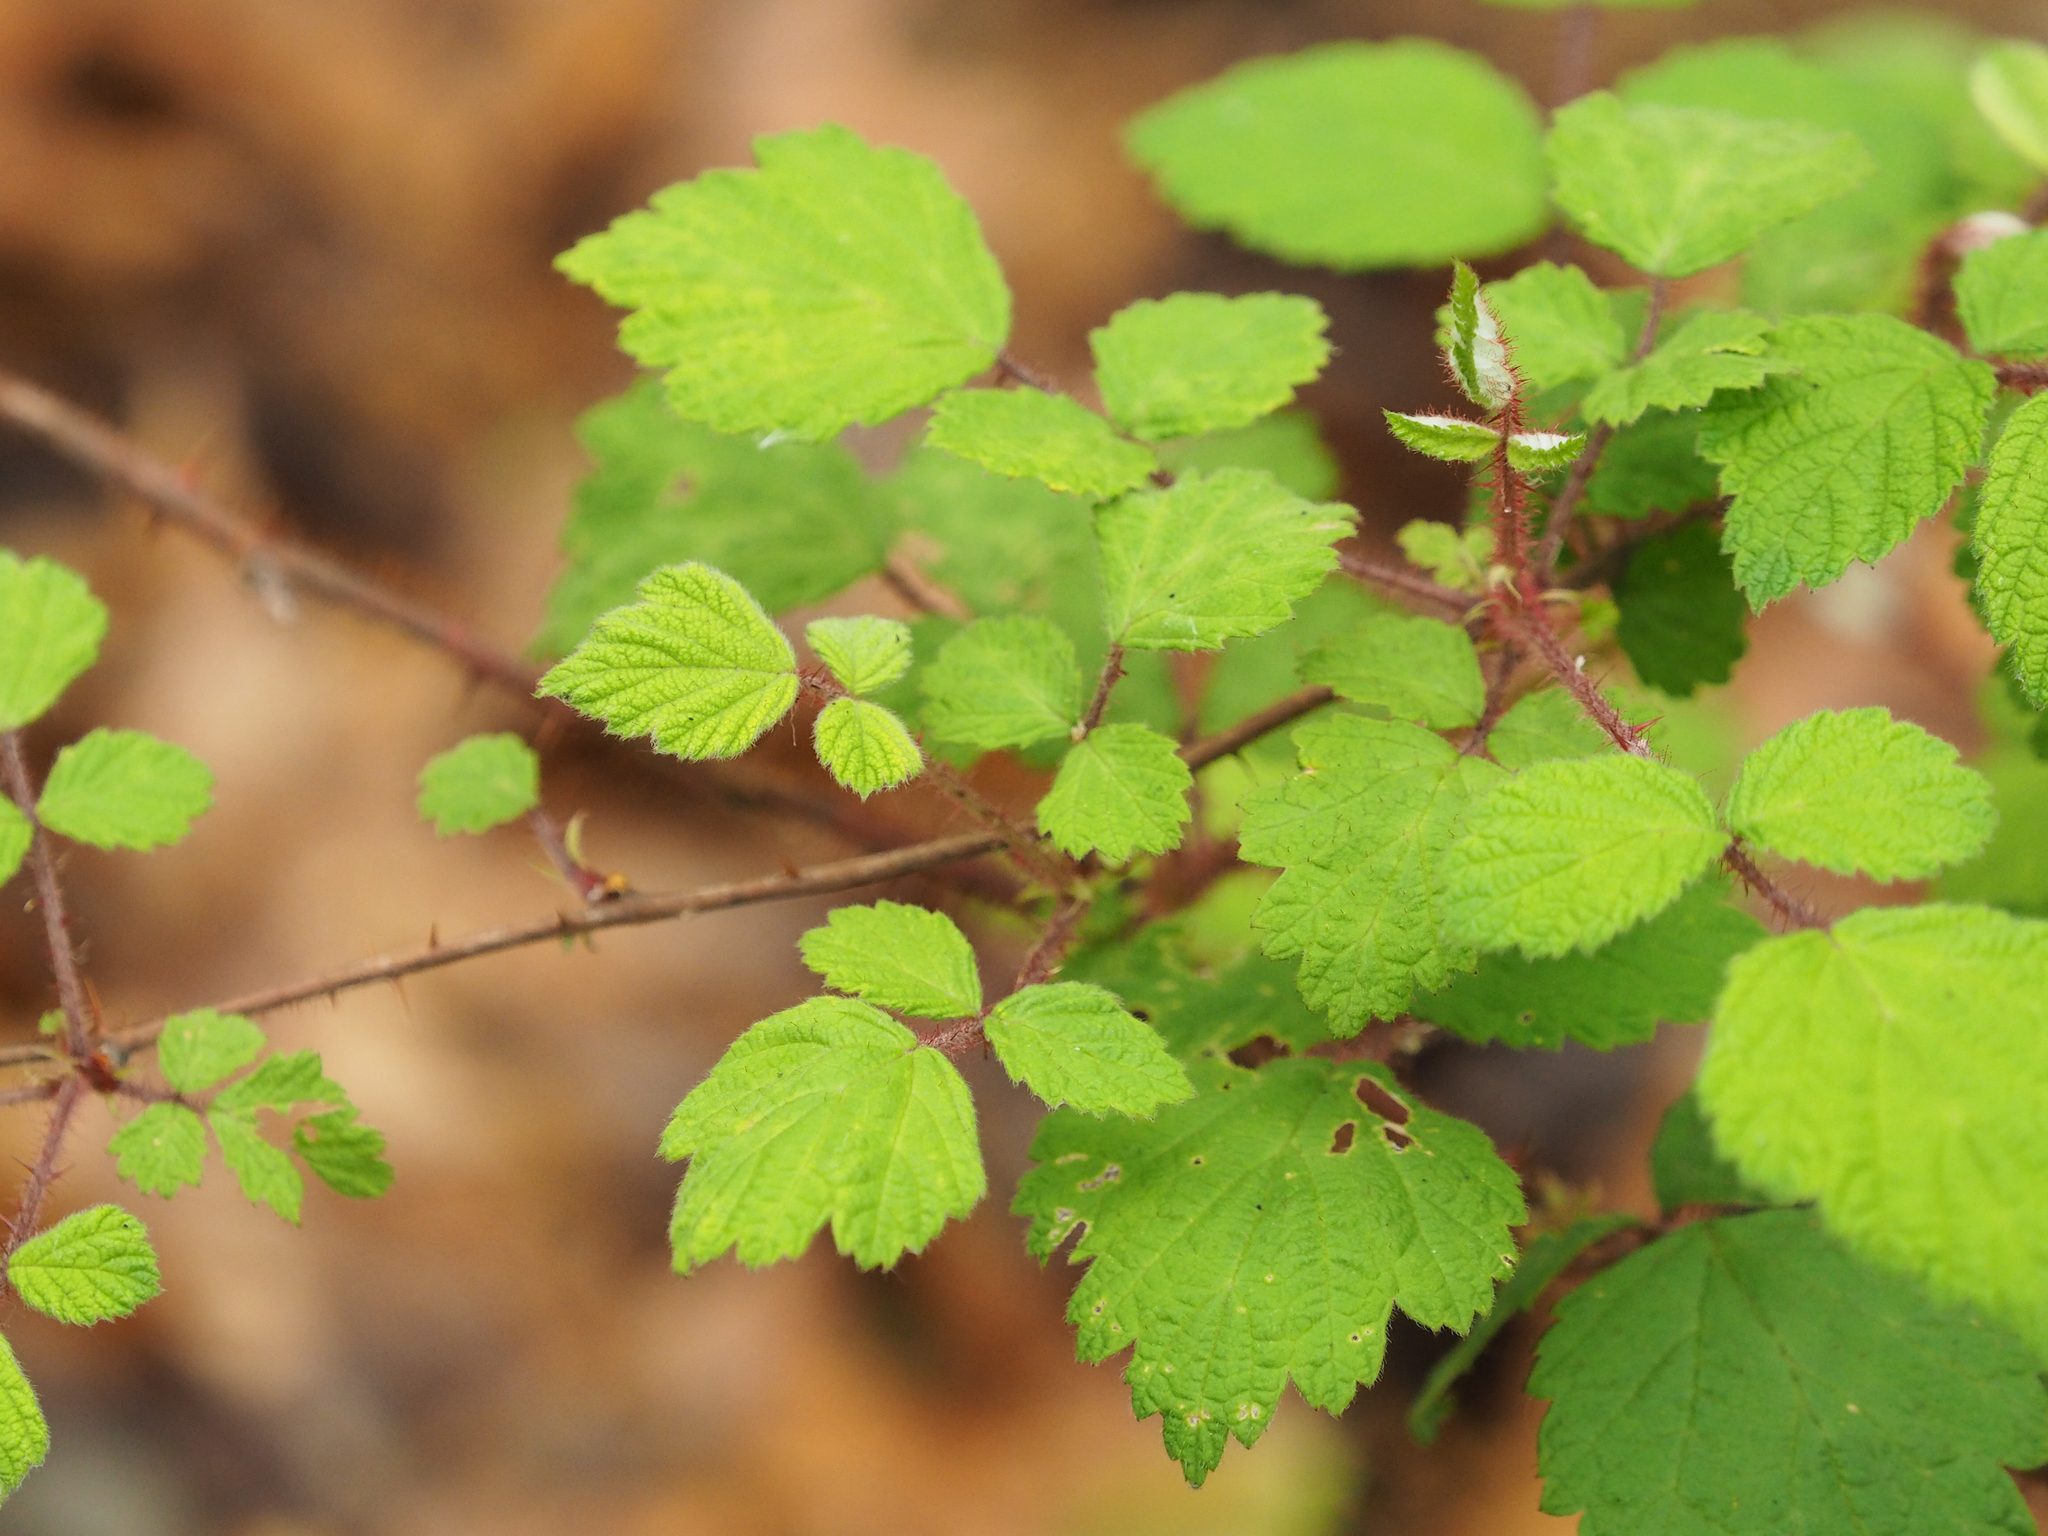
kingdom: Plantae
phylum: Tracheophyta
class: Magnoliopsida
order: Rosales
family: Rosaceae
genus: Rubus
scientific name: Rubus phoenicolasius
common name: Japanese wineberry
